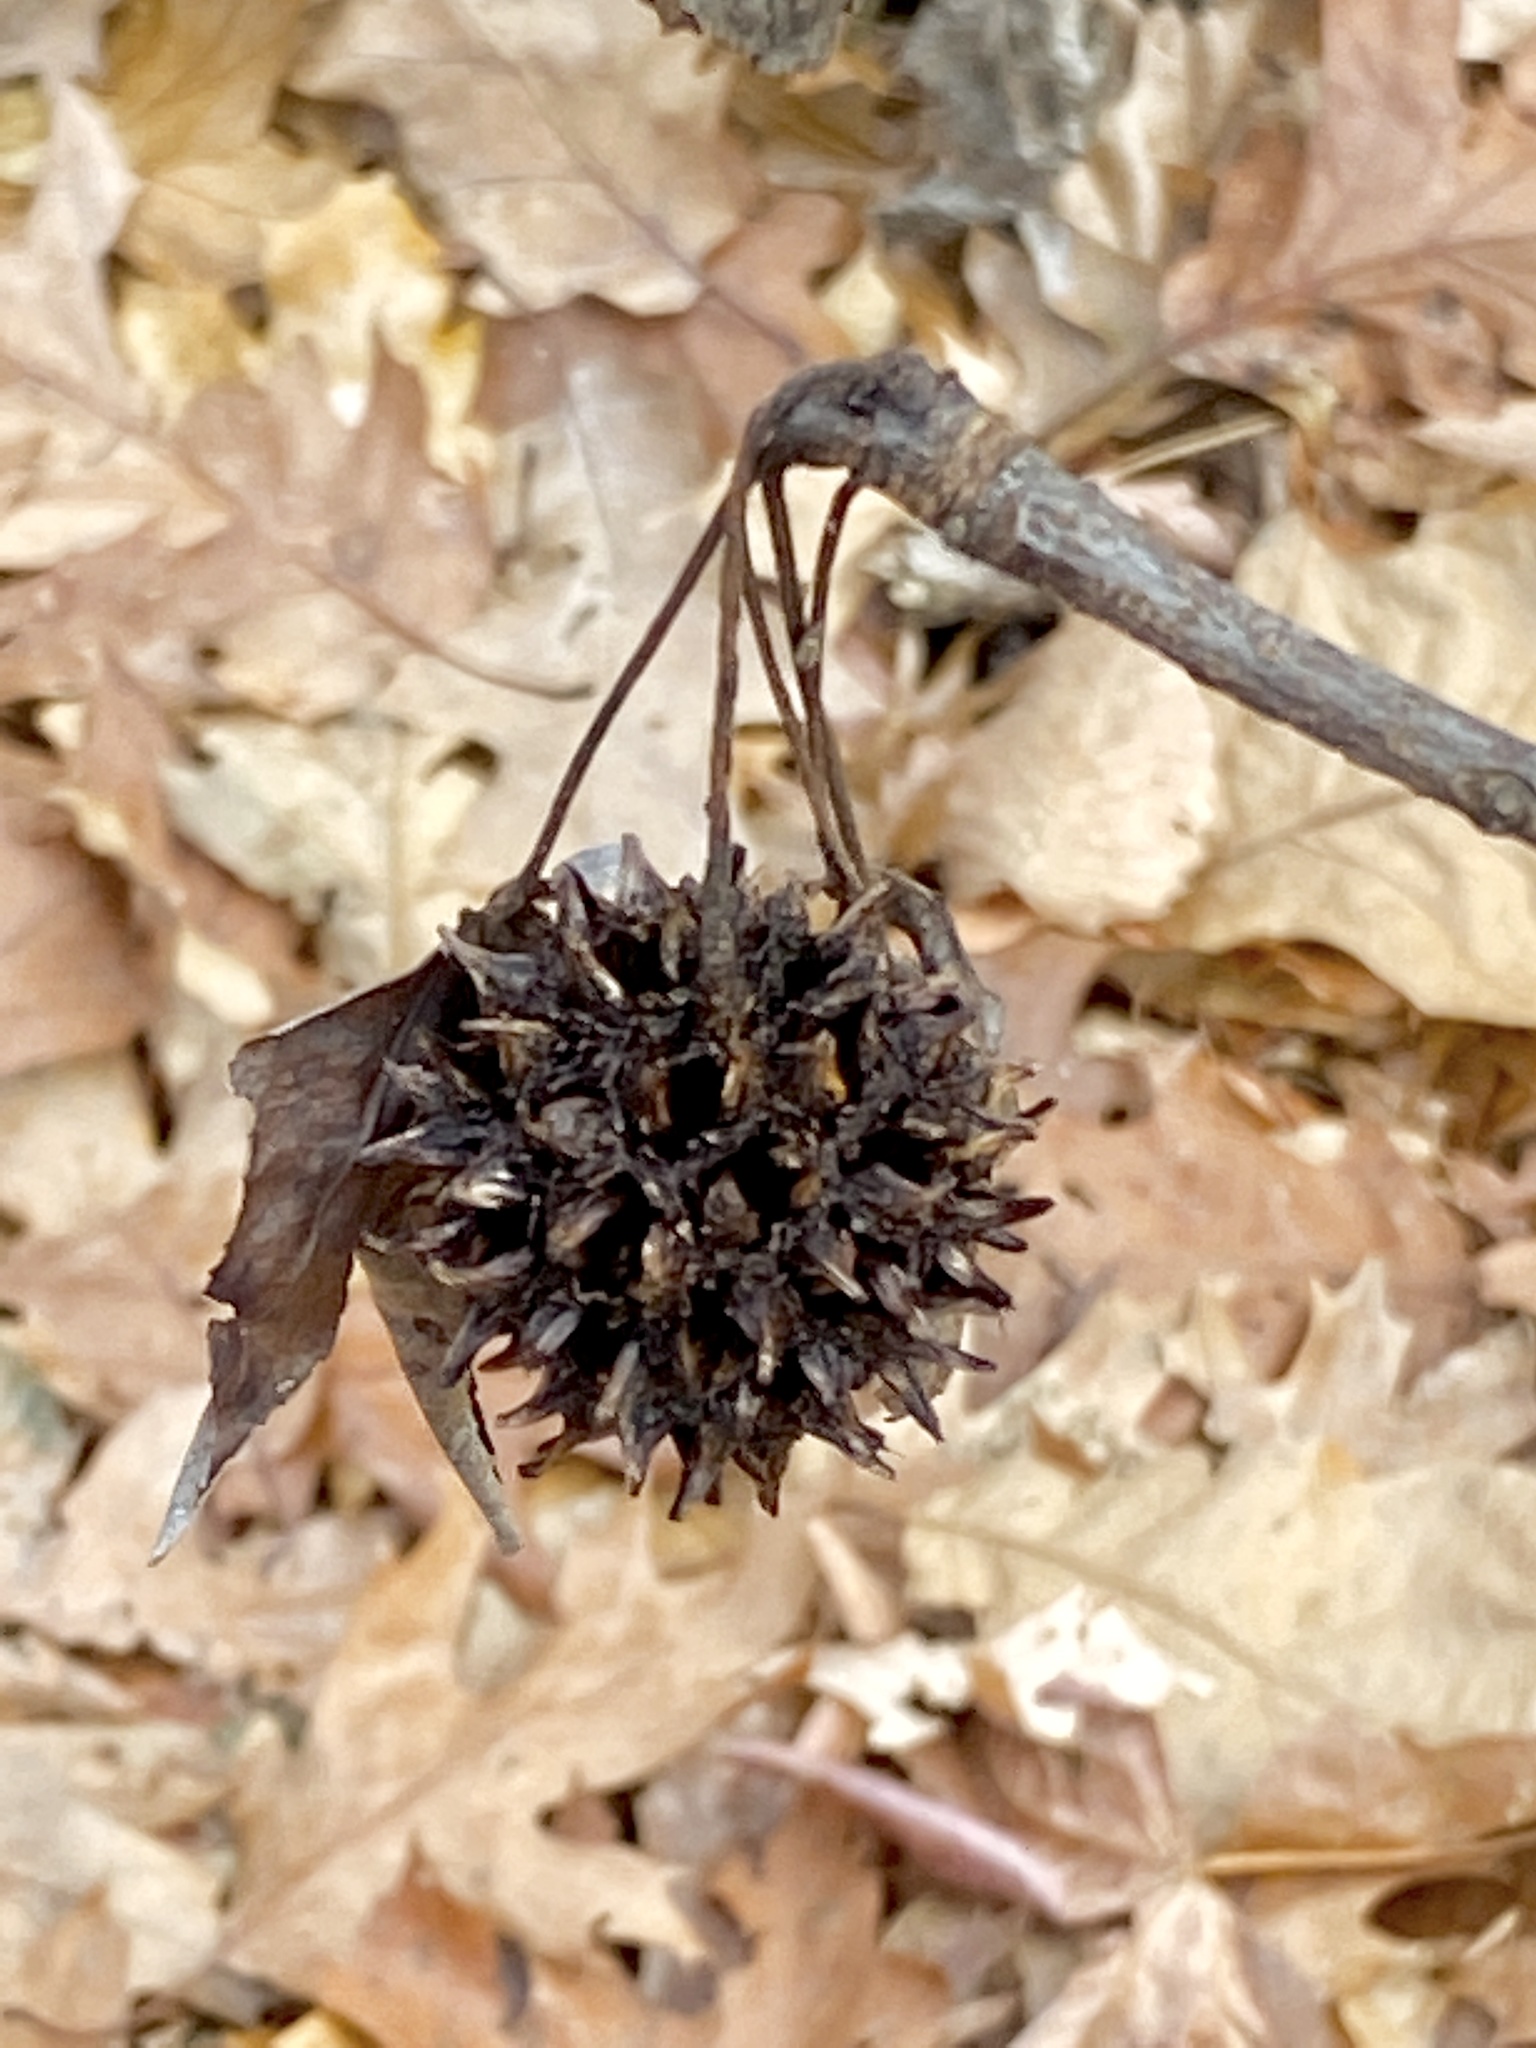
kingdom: Plantae
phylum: Tracheophyta
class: Magnoliopsida
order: Saxifragales
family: Altingiaceae
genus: Liquidambar
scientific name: Liquidambar styraciflua
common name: Sweet gum
